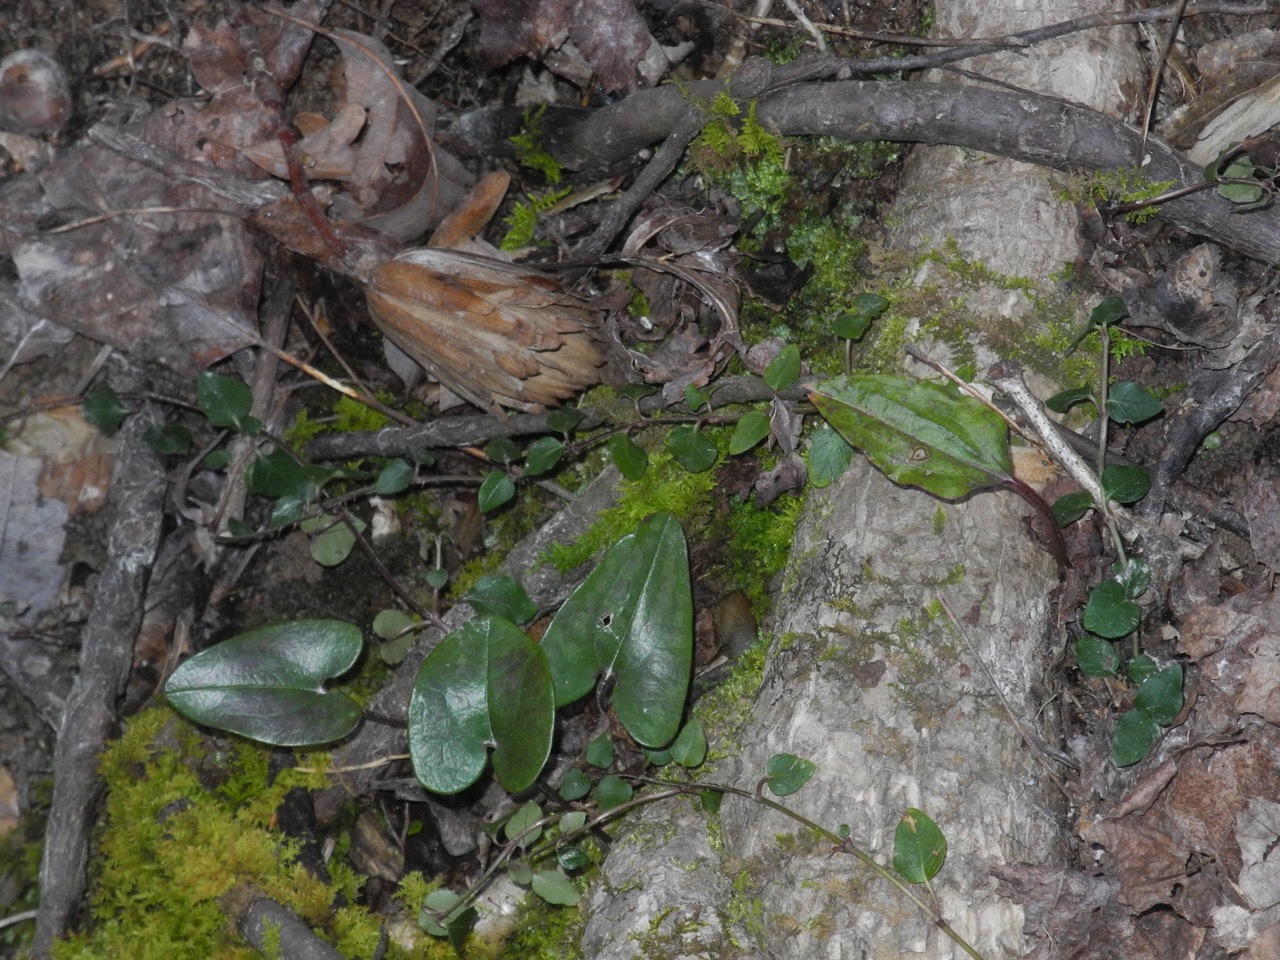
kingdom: Plantae
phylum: Tracheophyta
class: Magnoliopsida
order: Piperales
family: Aristolochiaceae
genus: Hexastylis
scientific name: Hexastylis arifolia
